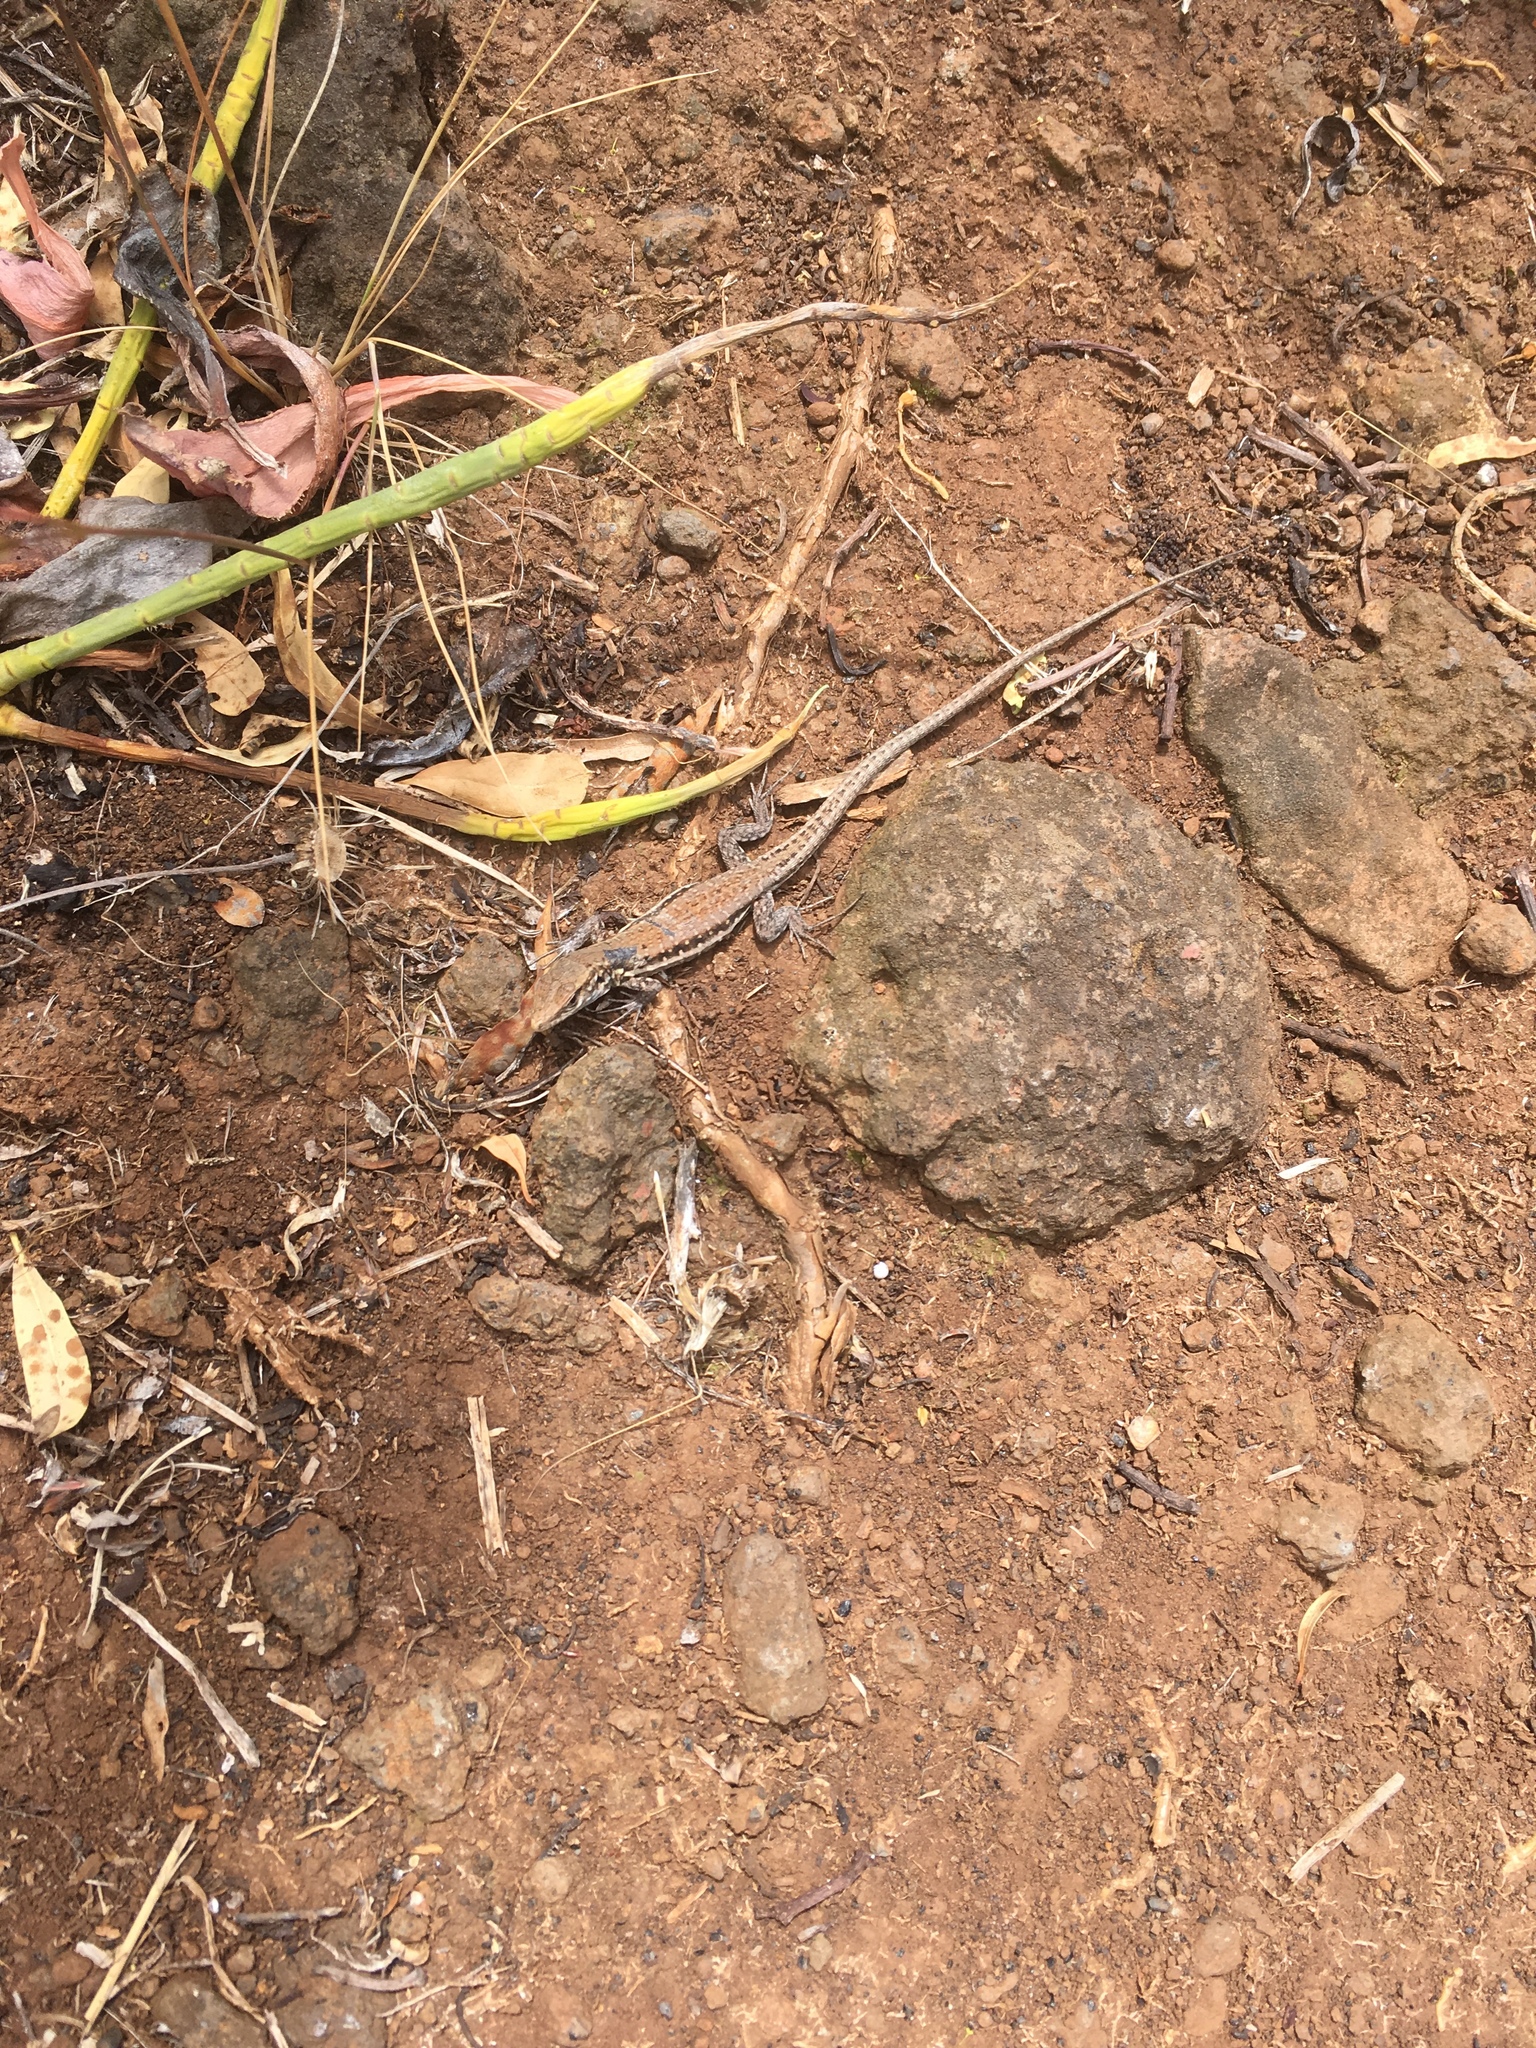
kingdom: Animalia
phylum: Chordata
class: Squamata
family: Lacertidae
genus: Gallotia
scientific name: Gallotia galloti
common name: Gallot's lizard
